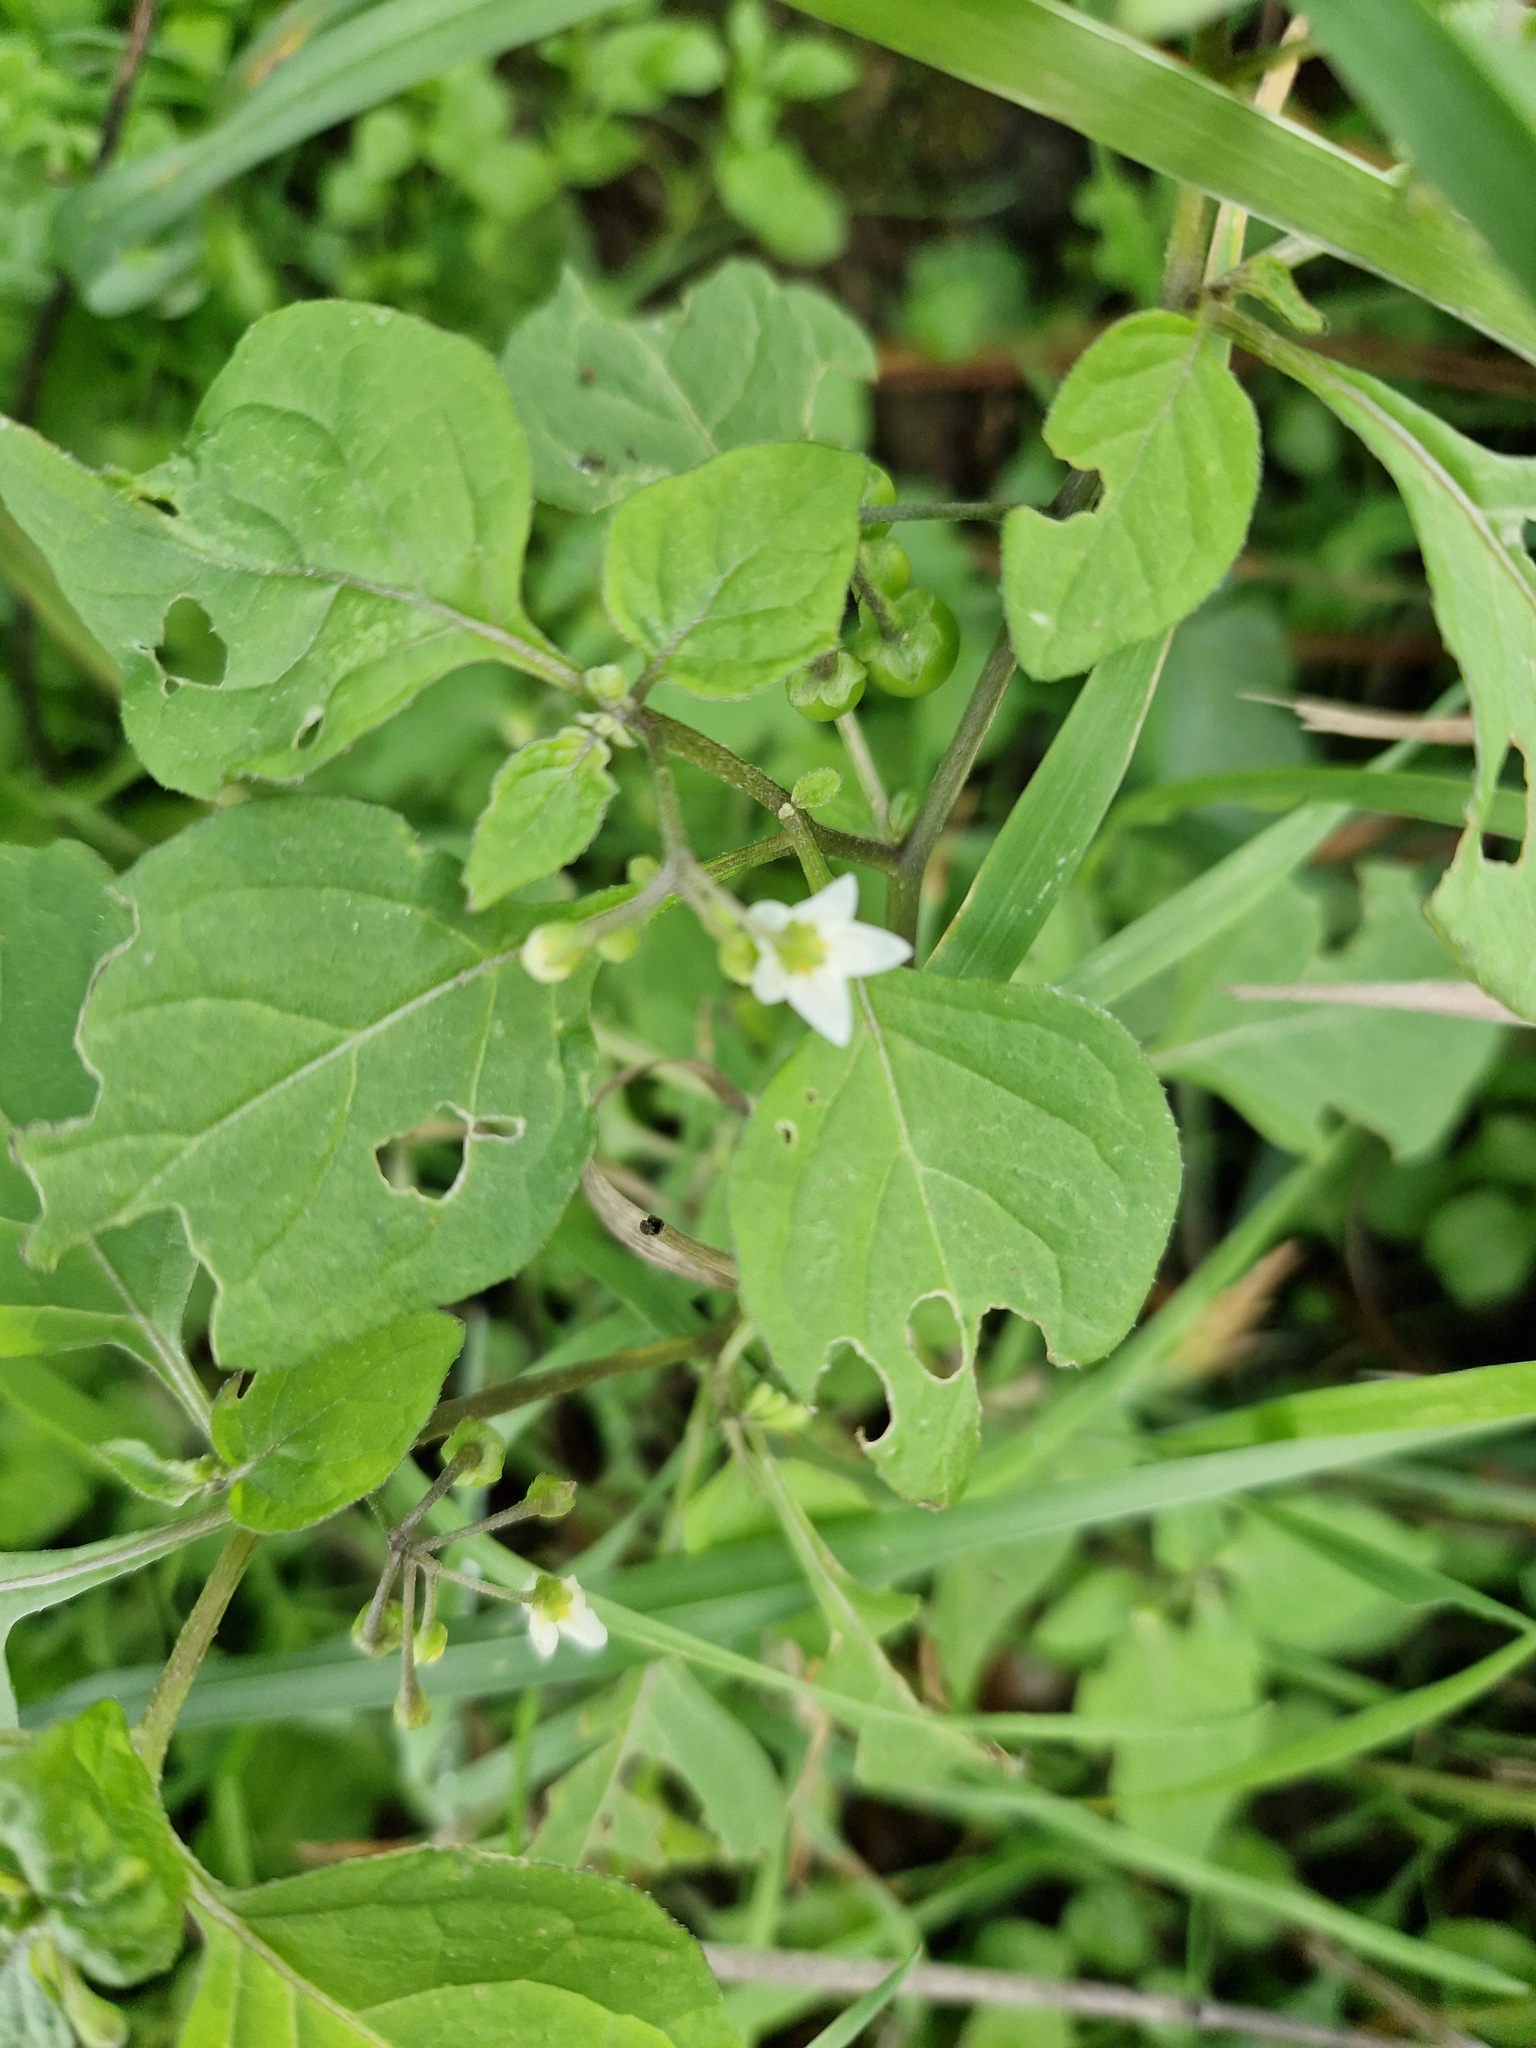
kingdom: Plantae
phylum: Tracheophyta
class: Magnoliopsida
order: Solanales
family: Solanaceae
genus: Solanum
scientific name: Solanum nigrum
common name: Black nightshade
